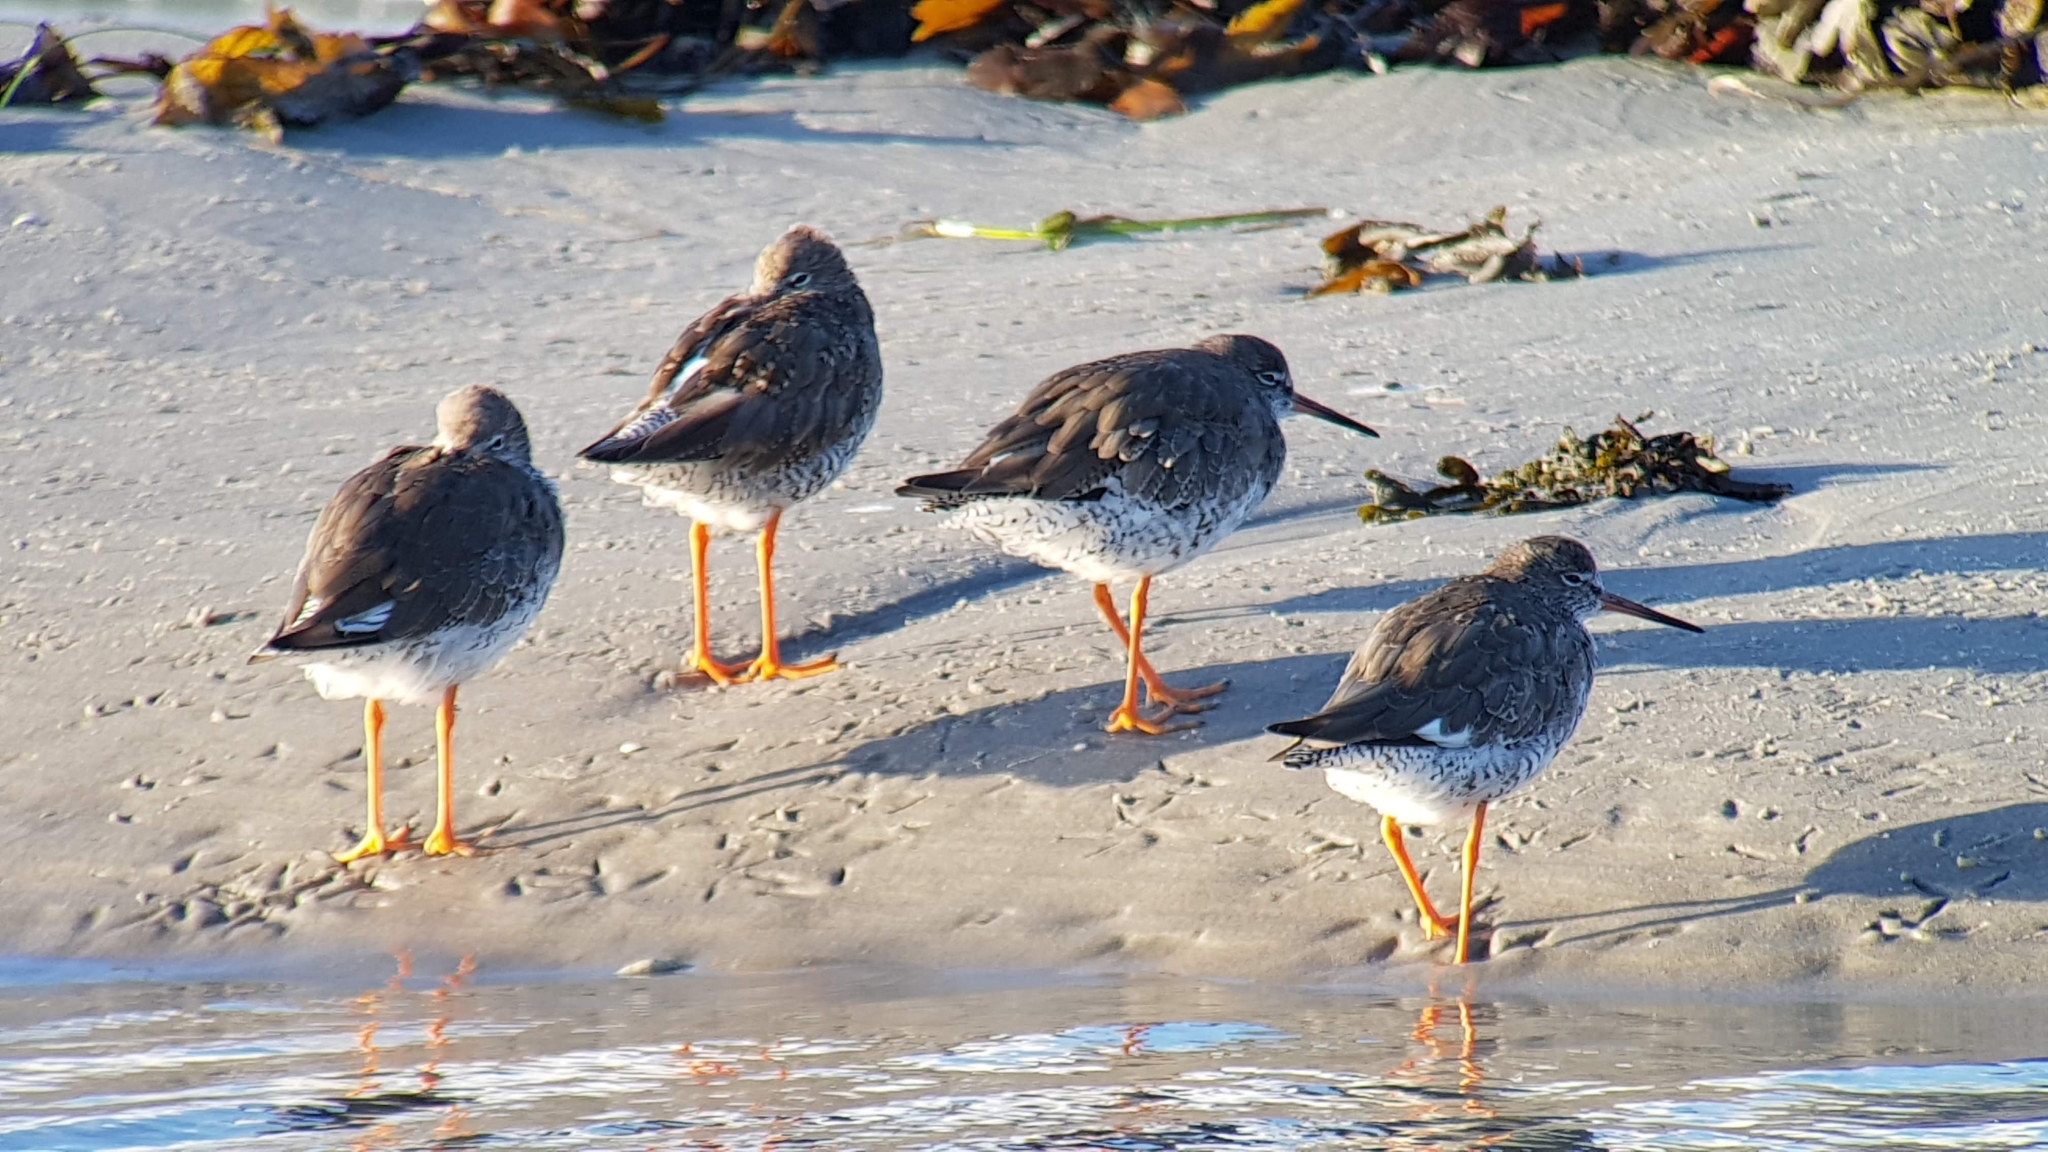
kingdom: Animalia
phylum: Chordata
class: Aves
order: Charadriiformes
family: Scolopacidae
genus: Tringa
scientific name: Tringa totanus
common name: Common redshank
